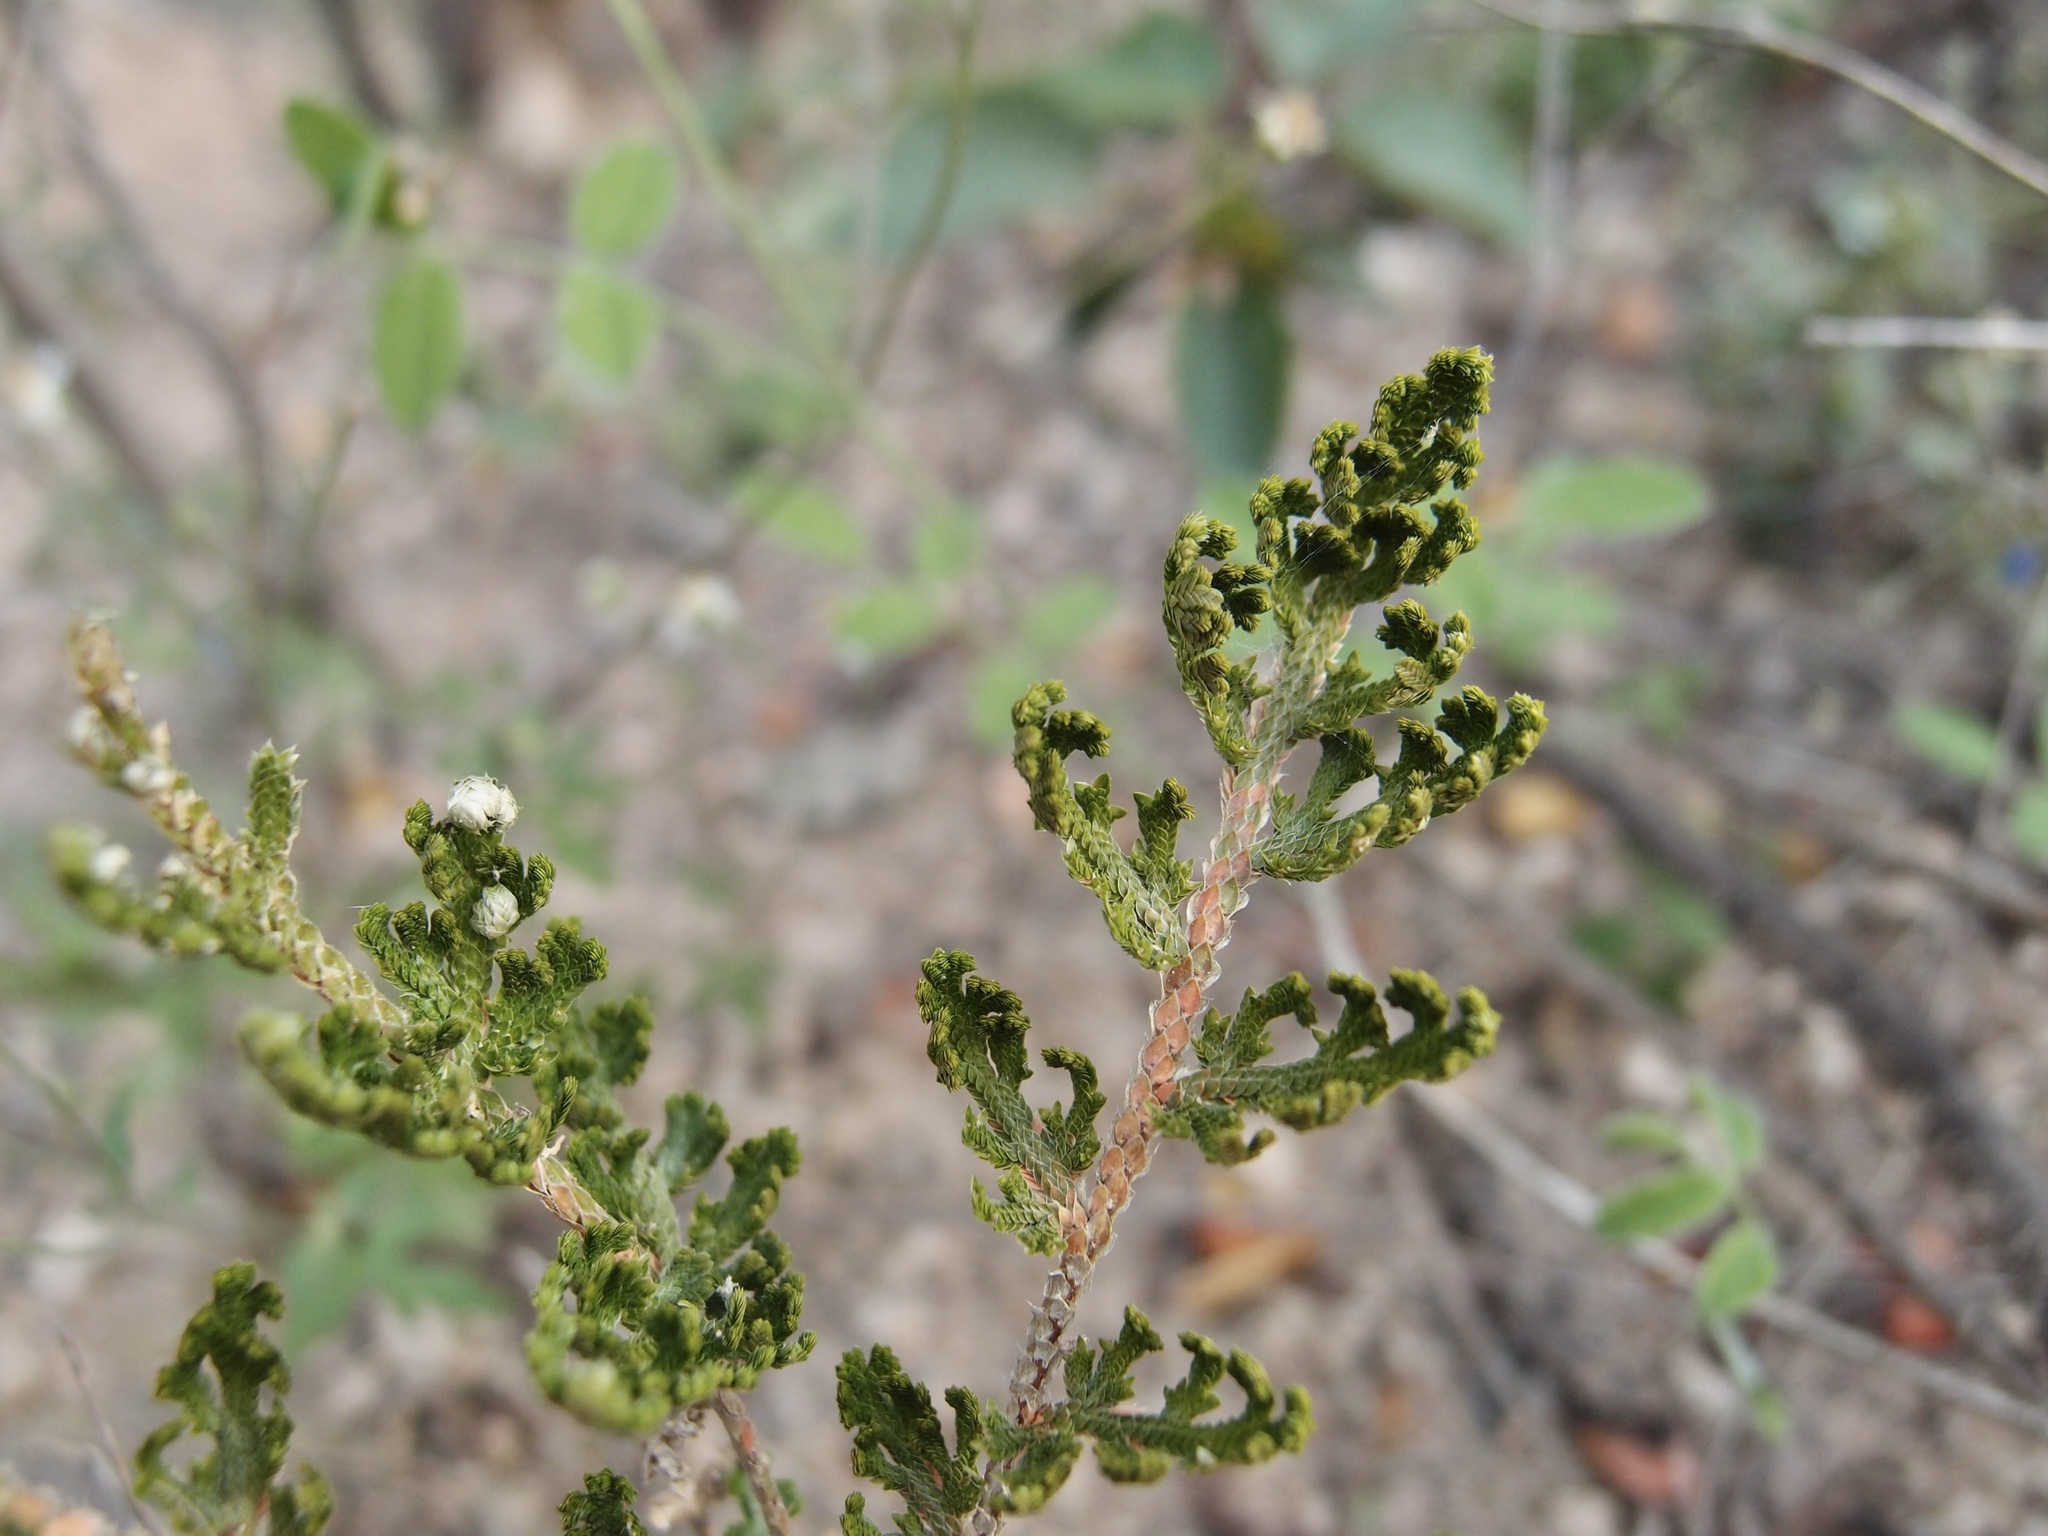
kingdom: Plantae
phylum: Tracheophyta
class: Lycopodiopsida
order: Selaginellales
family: Selaginellaceae
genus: Selaginella
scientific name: Selaginella pallescens
